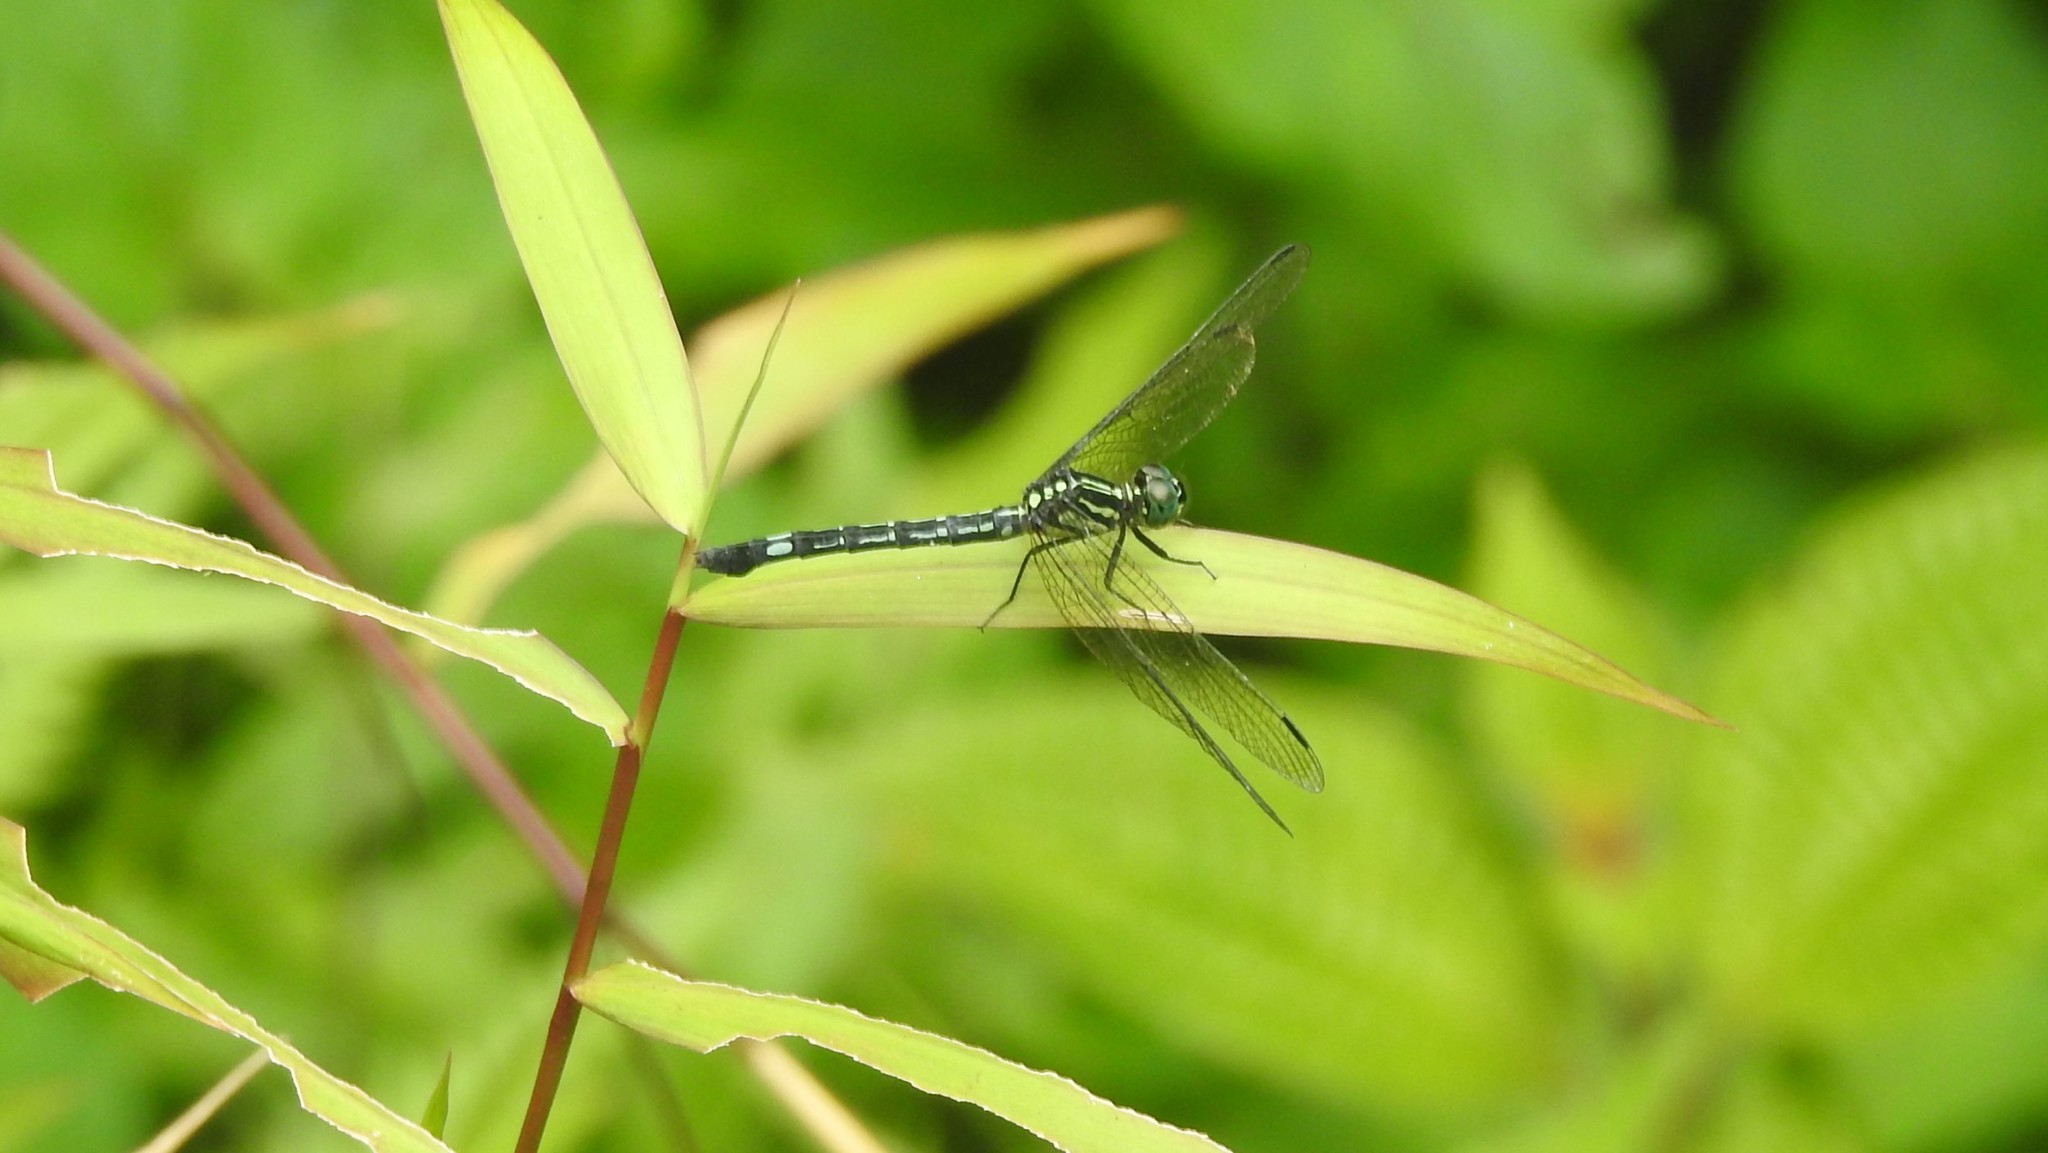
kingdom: Animalia
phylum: Arthropoda
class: Insecta
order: Odonata
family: Libellulidae
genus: Hylaeothemis
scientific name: Hylaeothemis apicalis
